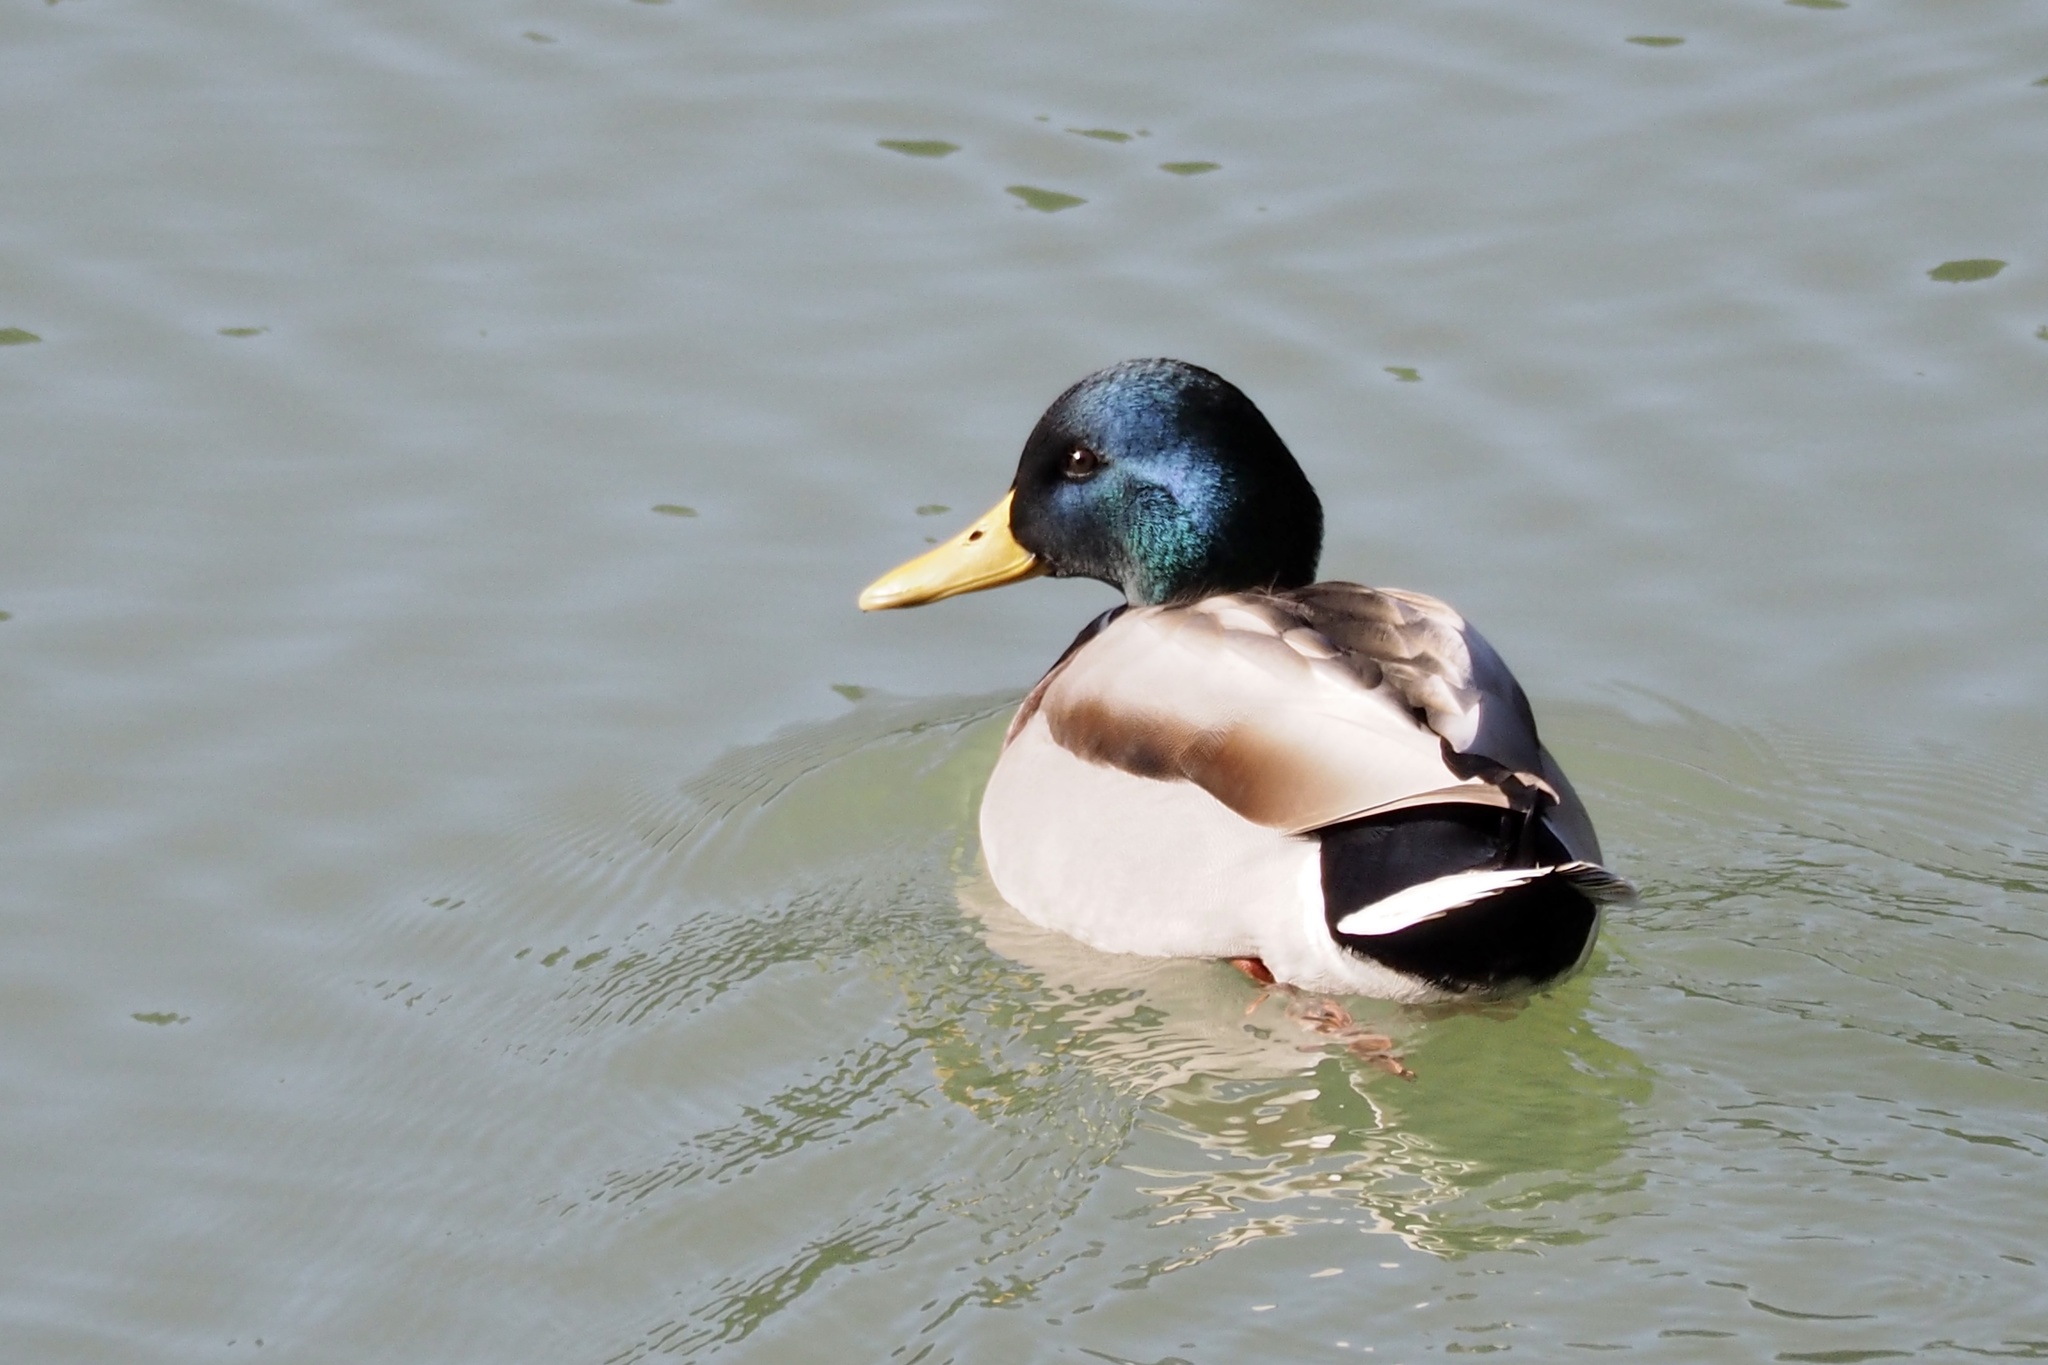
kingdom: Animalia
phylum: Chordata
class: Aves
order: Anseriformes
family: Anatidae
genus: Anas
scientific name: Anas platyrhynchos
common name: Mallard
